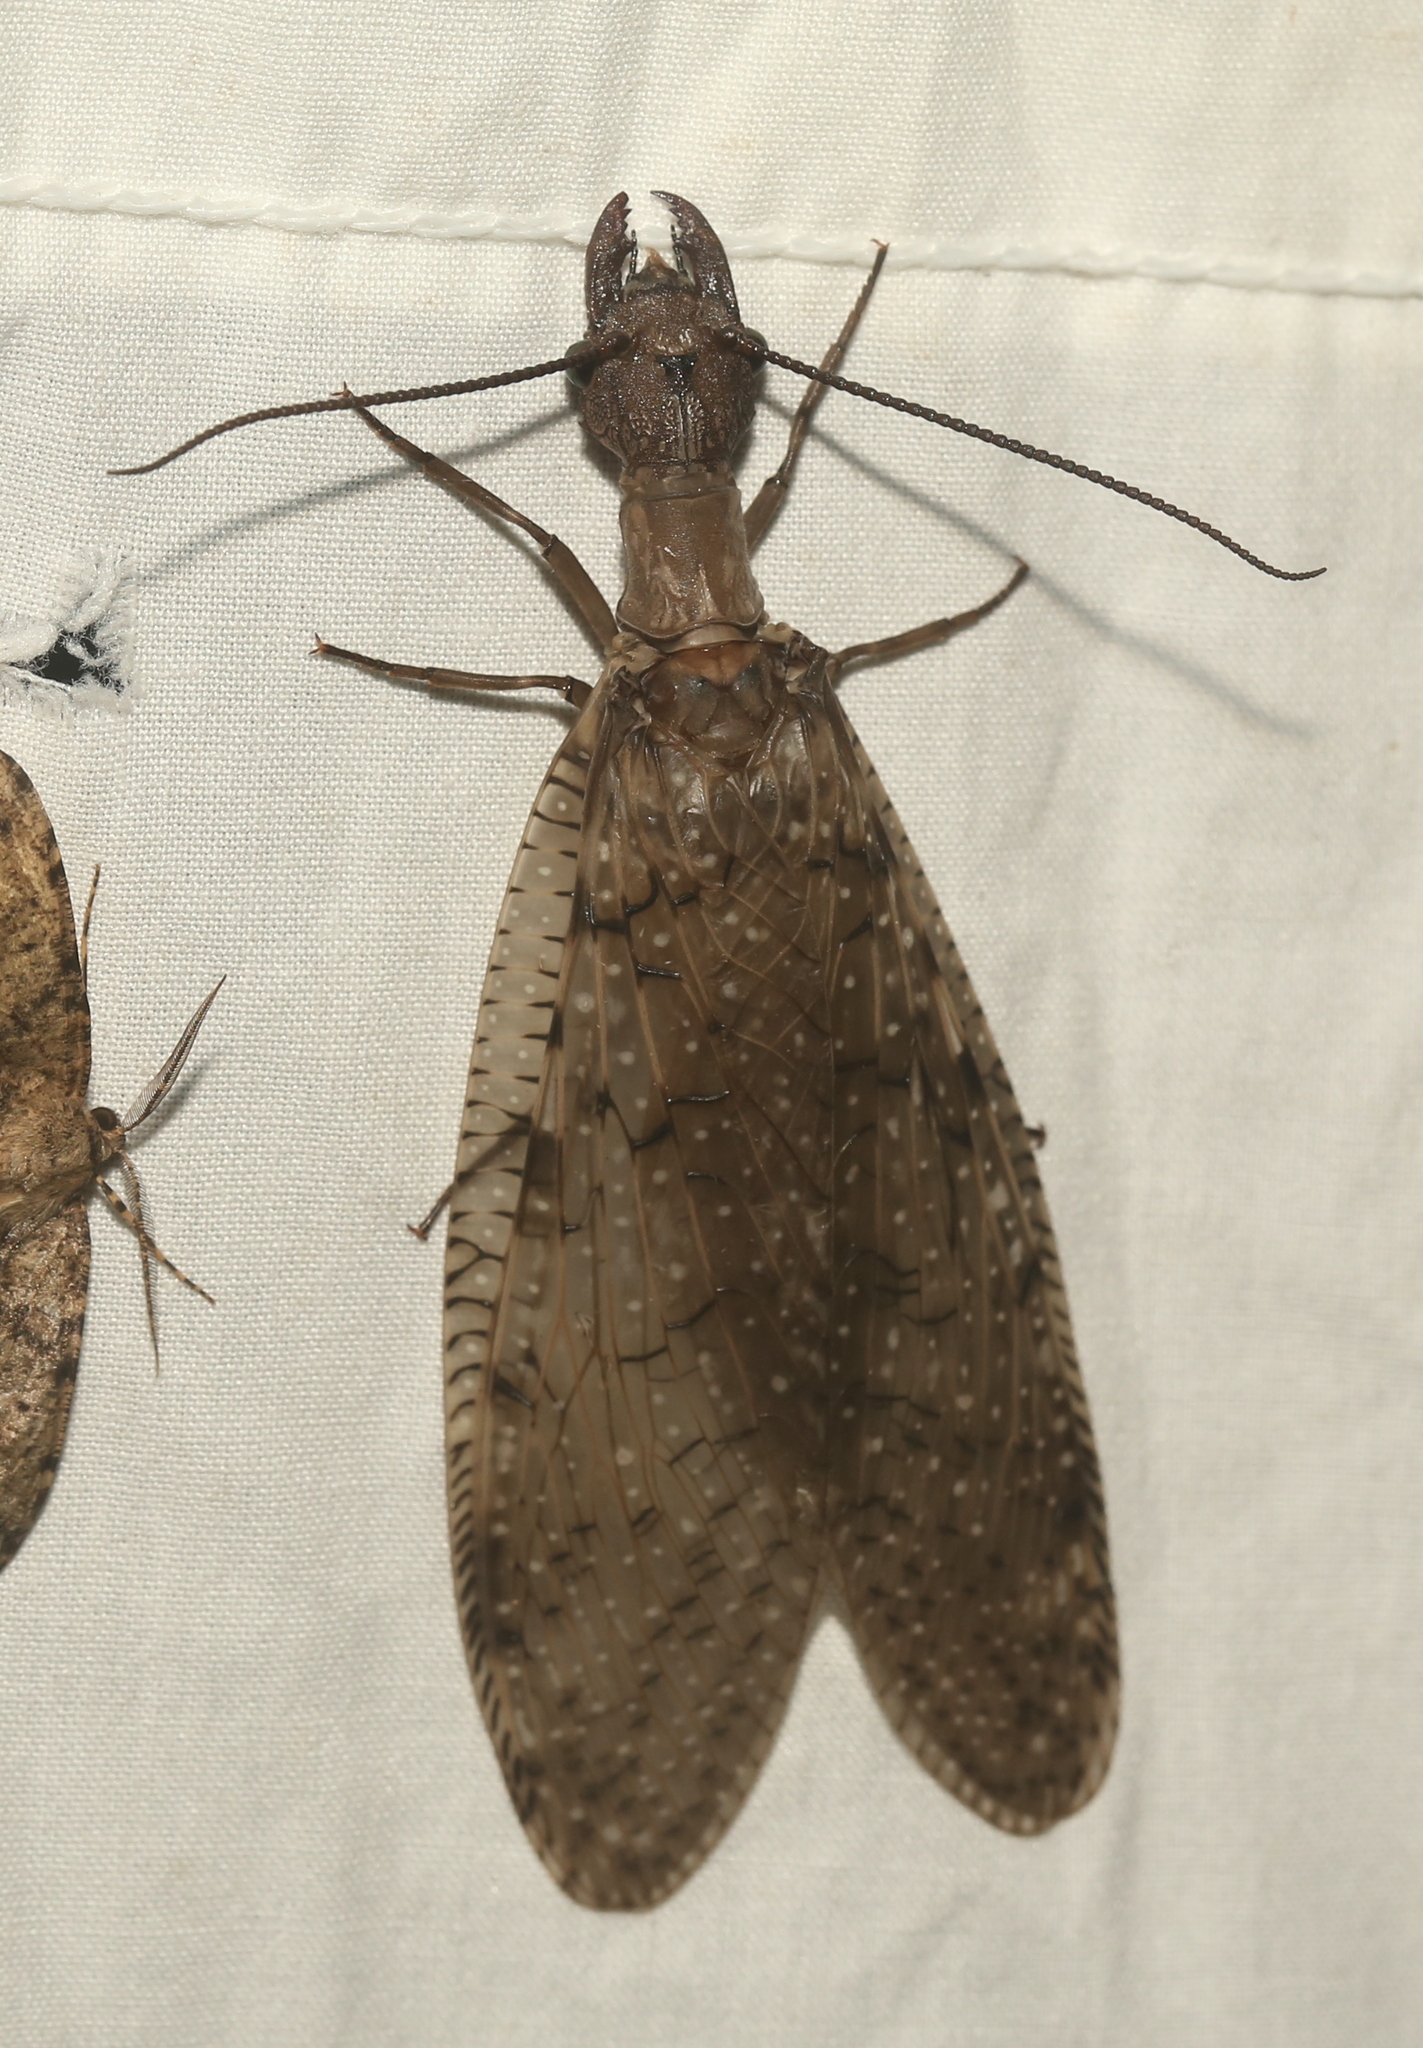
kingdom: Animalia
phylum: Arthropoda
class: Insecta
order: Megaloptera
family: Corydalidae
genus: Corydalus
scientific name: Corydalus cornutus
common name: Dobsonfly
